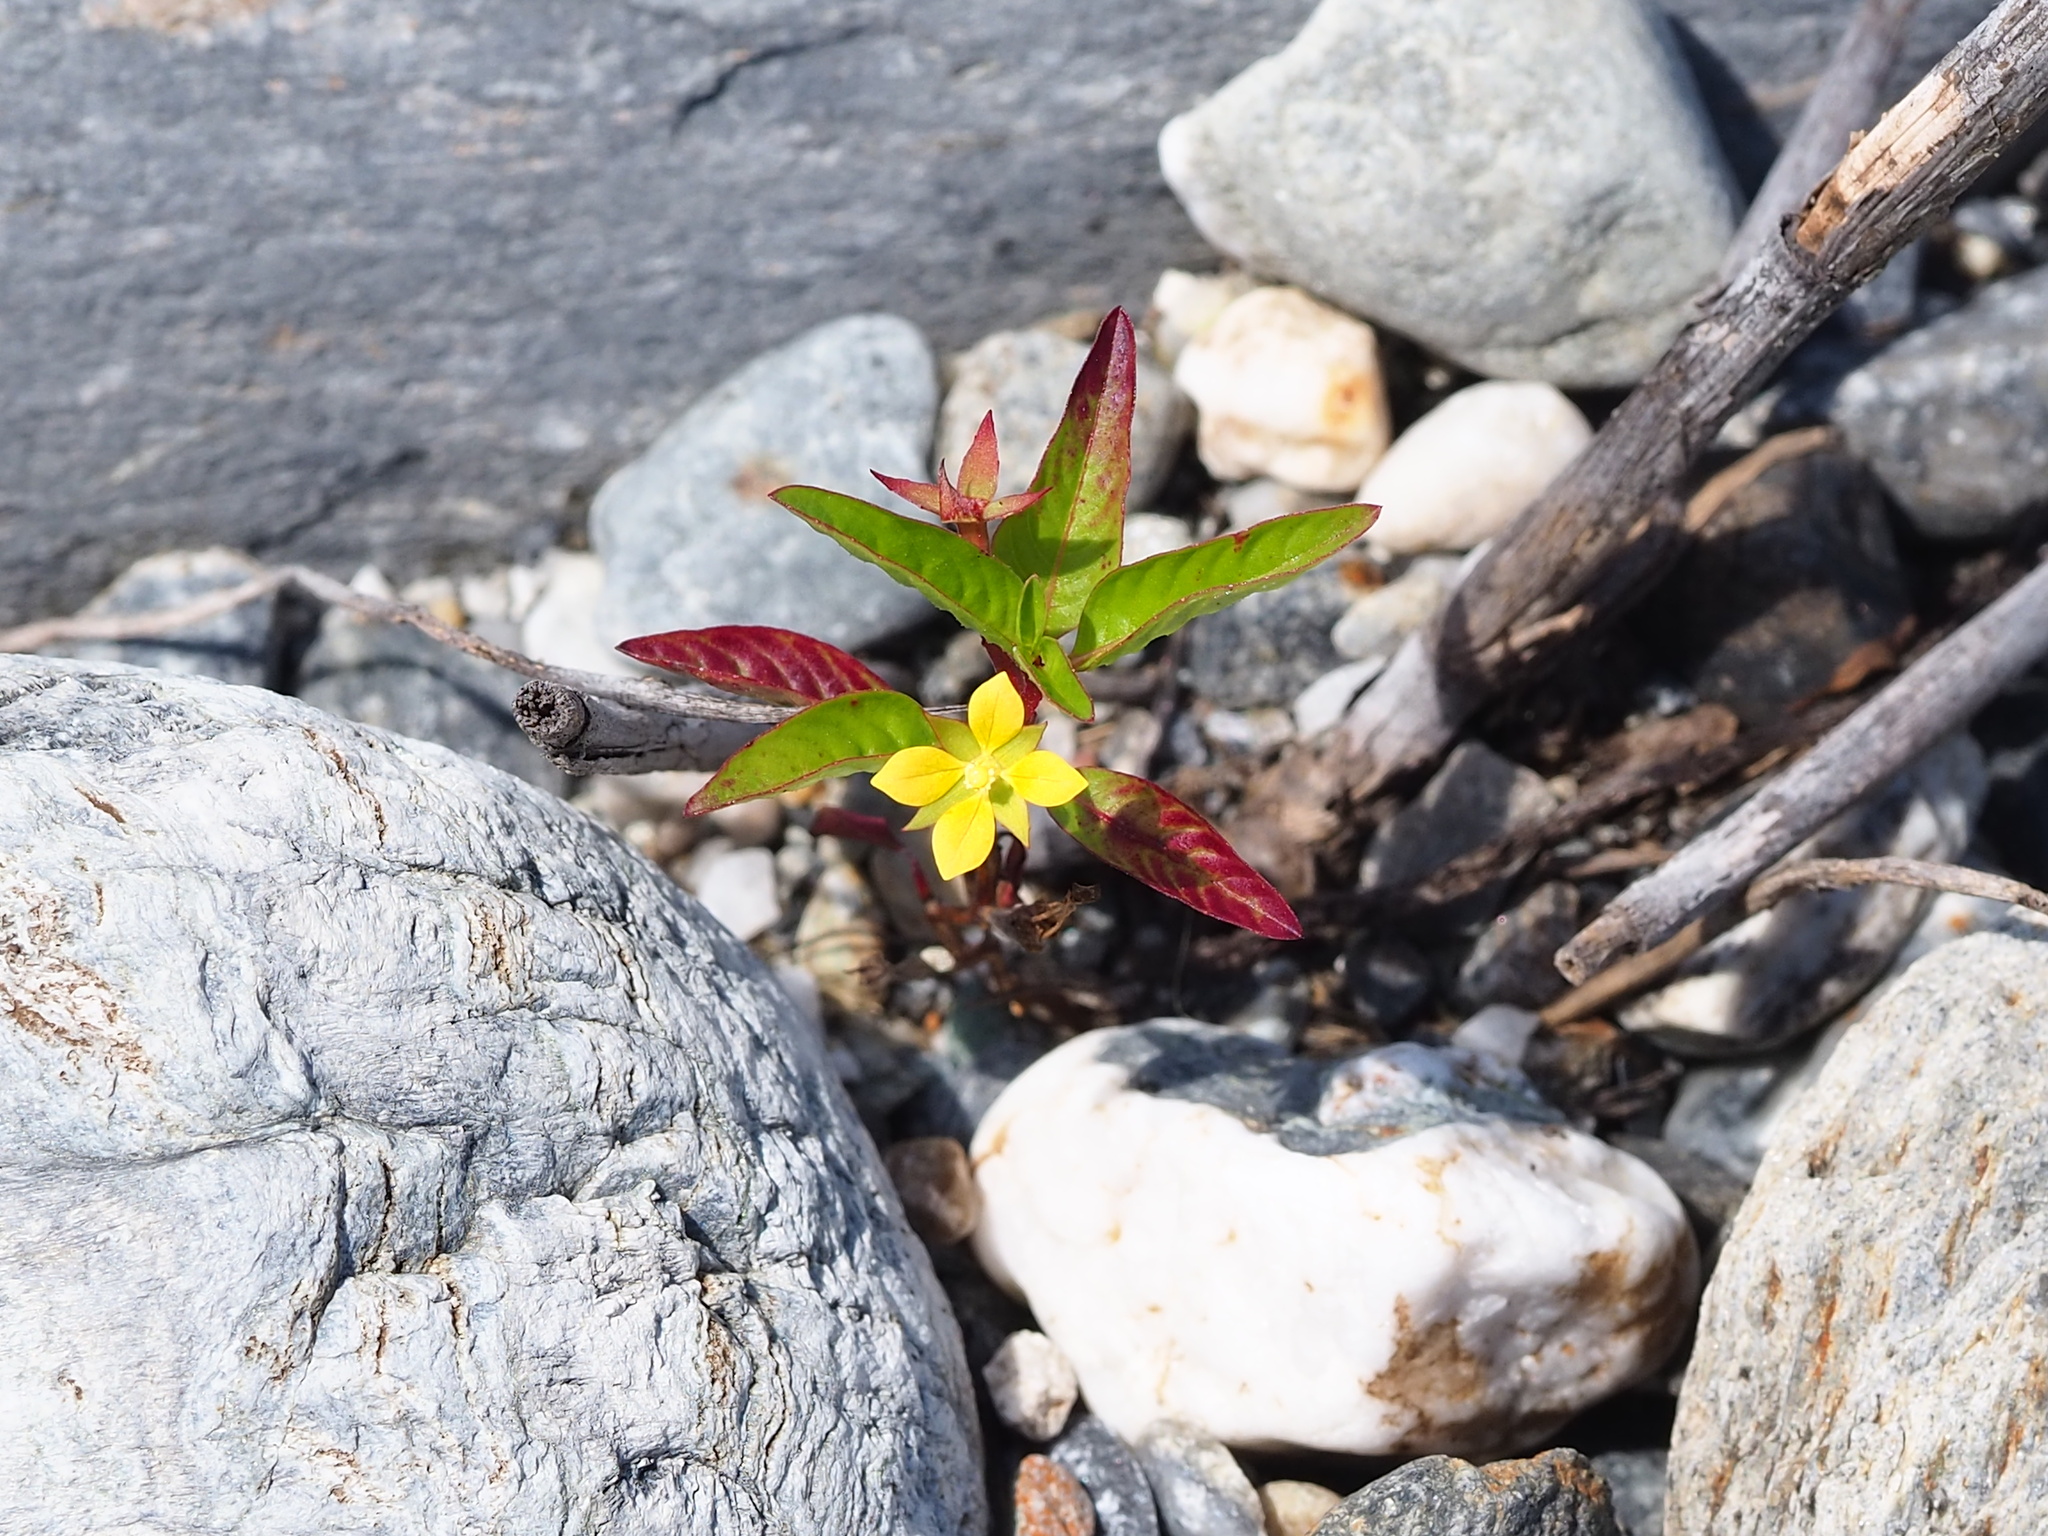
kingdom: Plantae
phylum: Tracheophyta
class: Magnoliopsida
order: Myrtales
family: Onagraceae
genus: Ludwigia
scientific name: Ludwigia hyssopifolia
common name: Linear leaf water primrose
